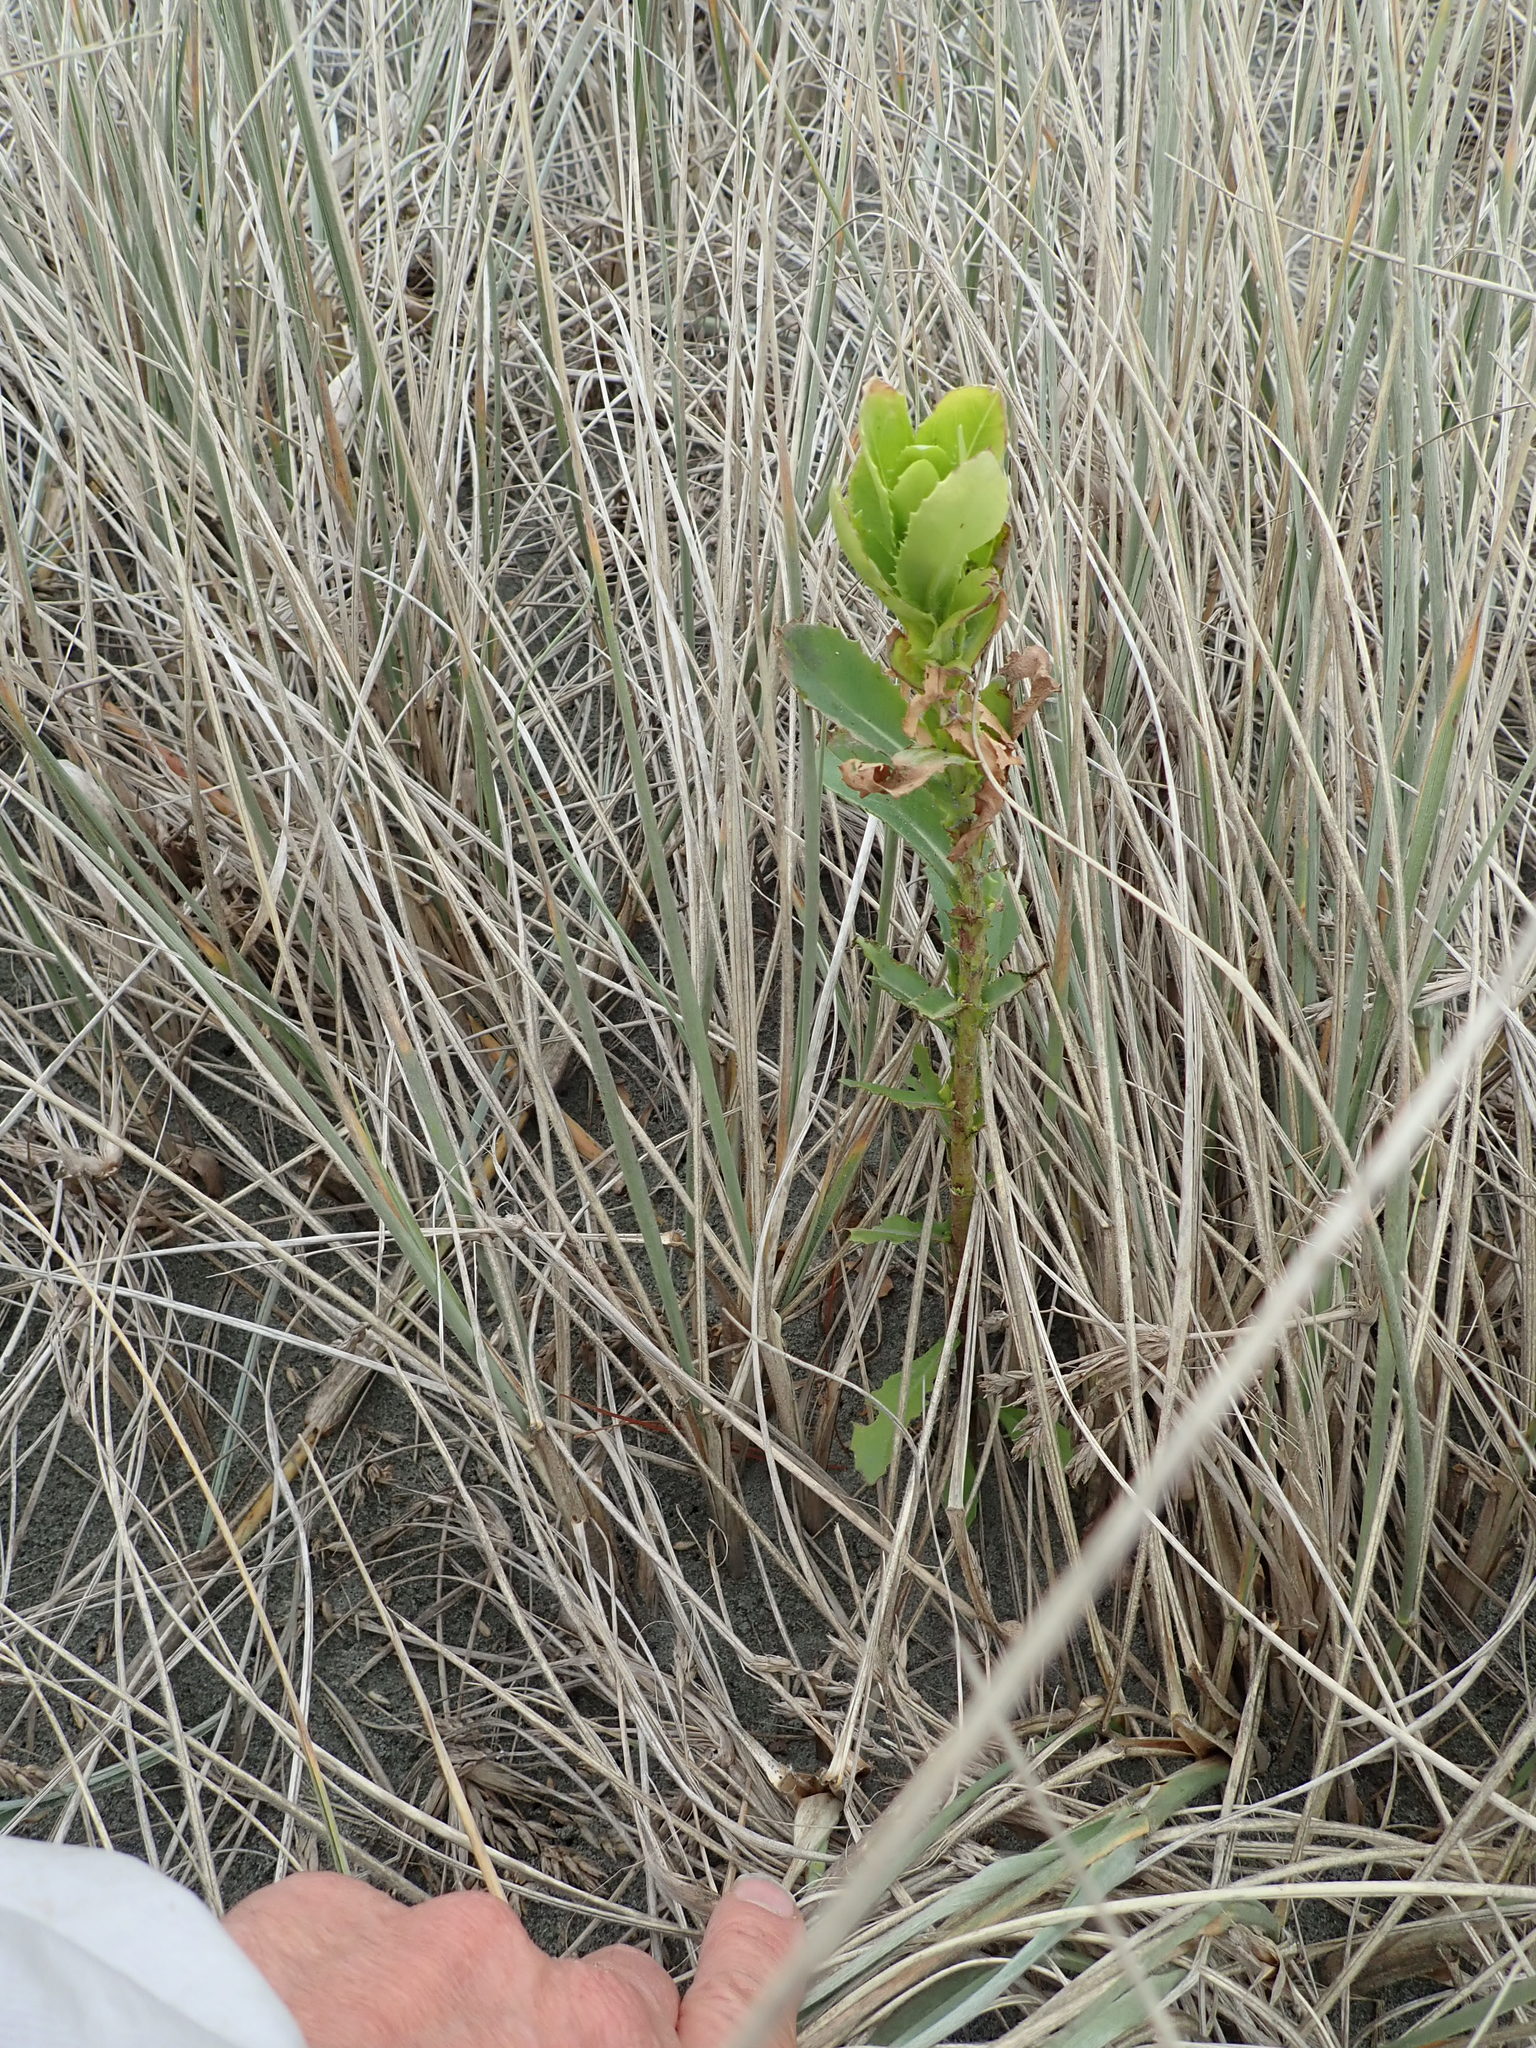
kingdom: Plantae
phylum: Tracheophyta
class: Magnoliopsida
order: Asterales
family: Asteraceae
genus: Senecio
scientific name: Senecio glastifolius
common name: Woad-leaved ragwort
